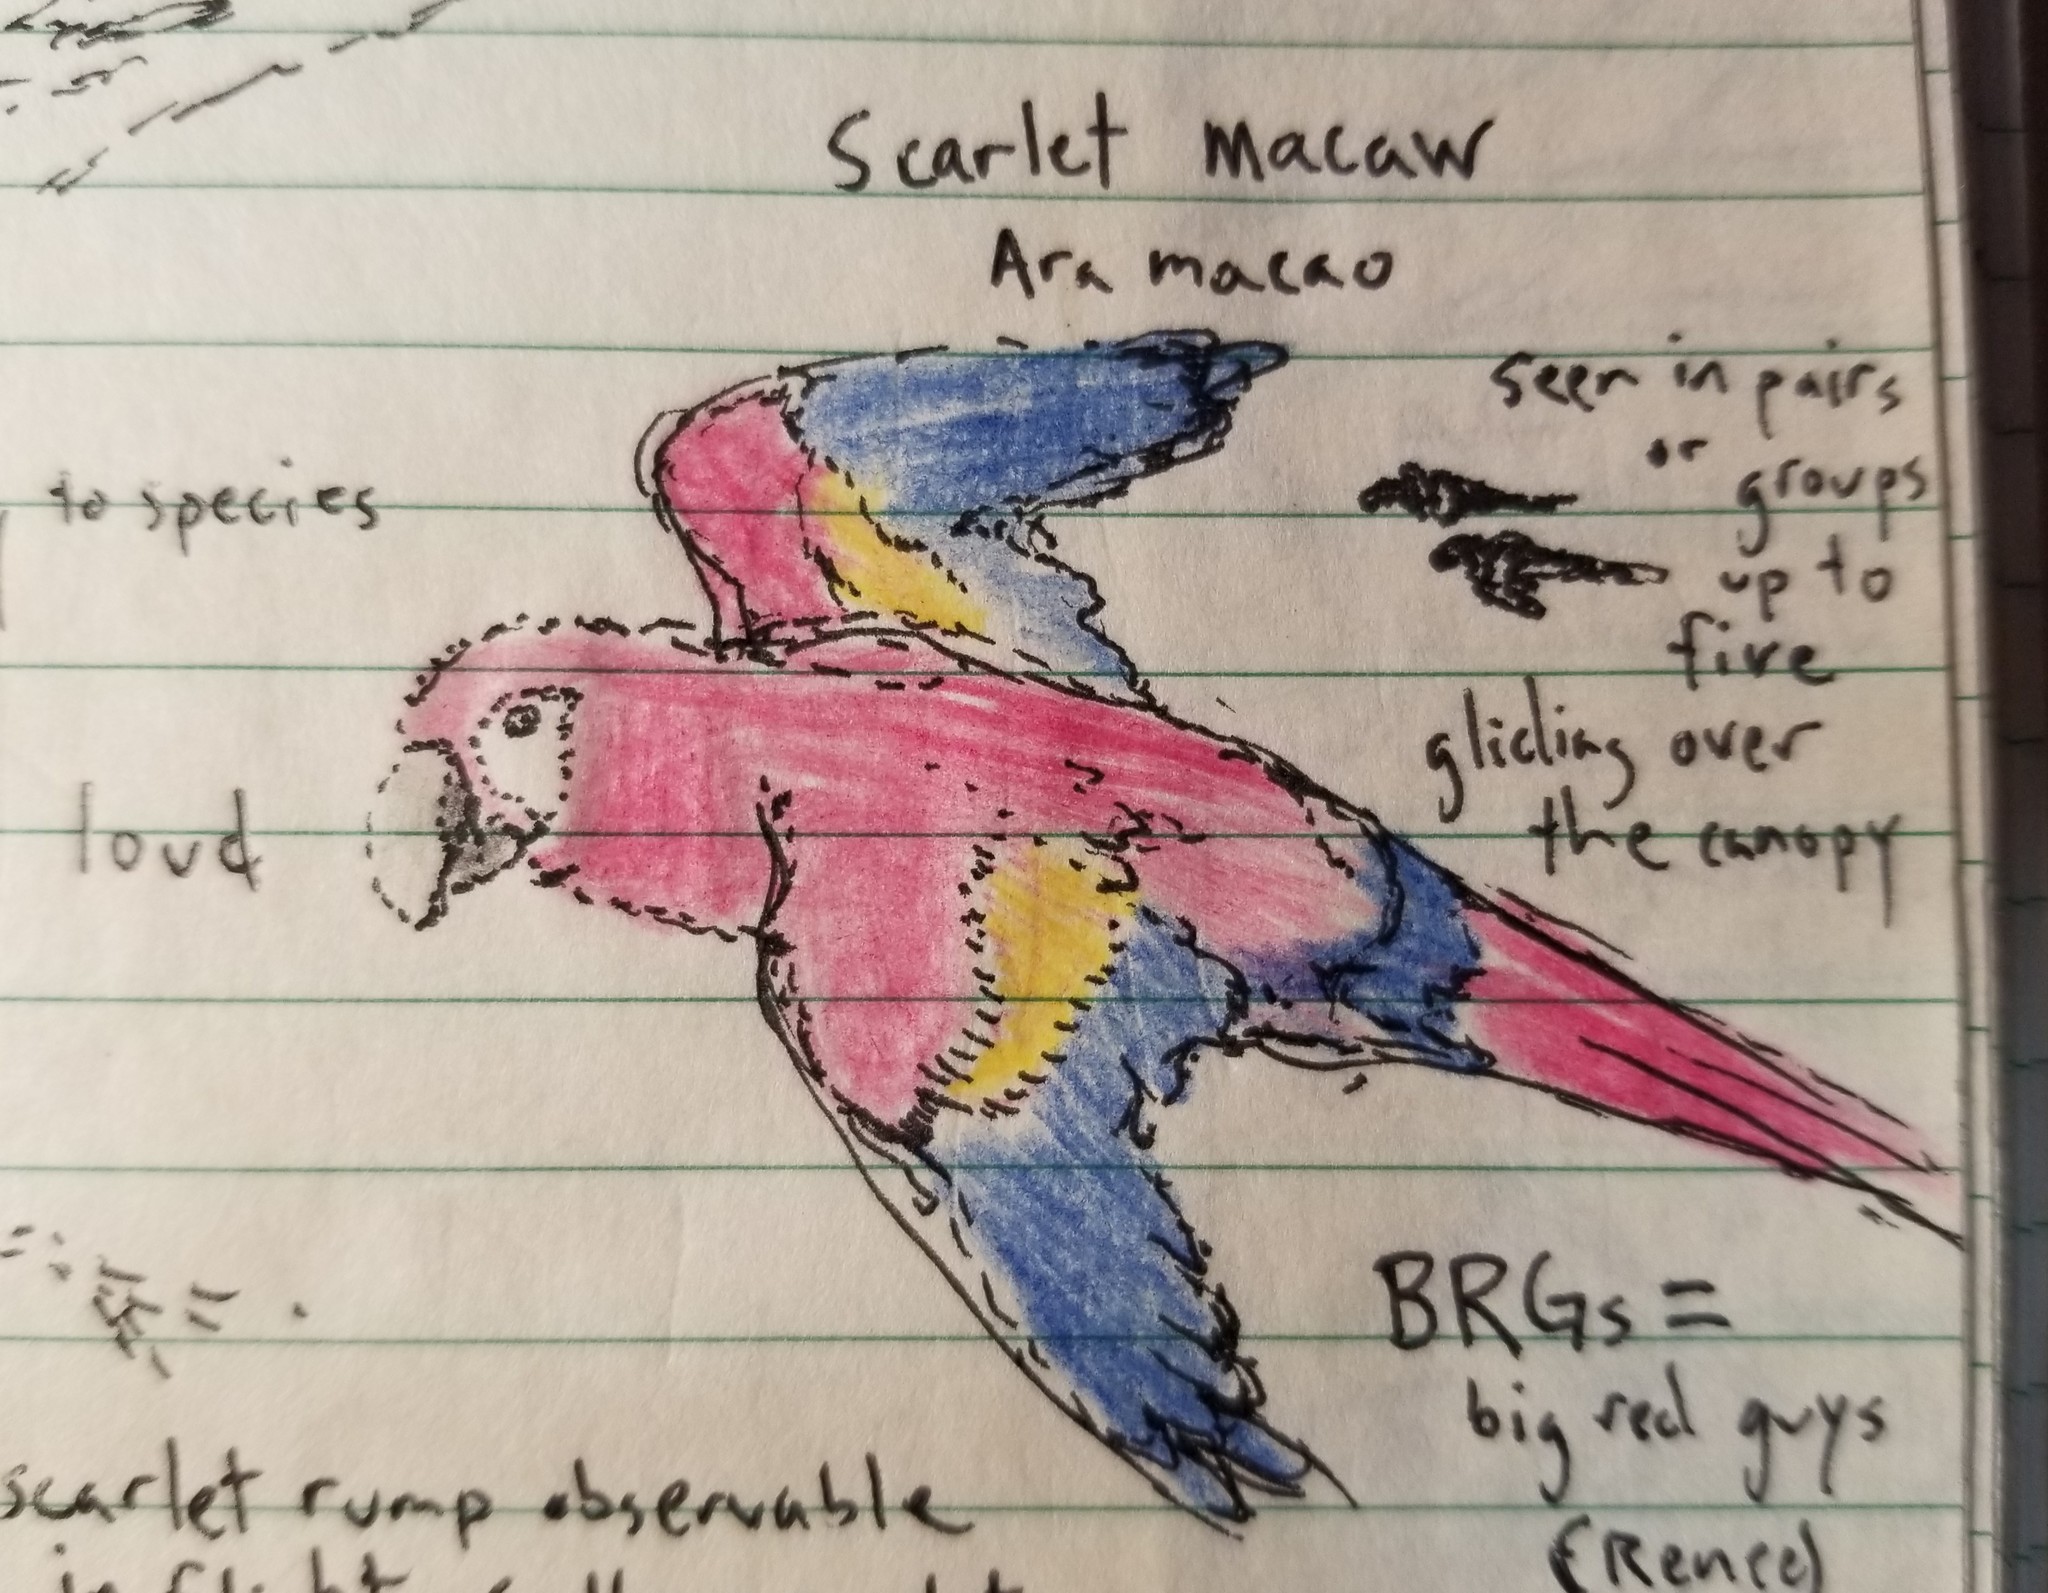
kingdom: Animalia
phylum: Chordata
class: Aves
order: Psittaciformes
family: Psittacidae
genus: Ara
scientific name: Ara macao
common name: Scarlet macaw
